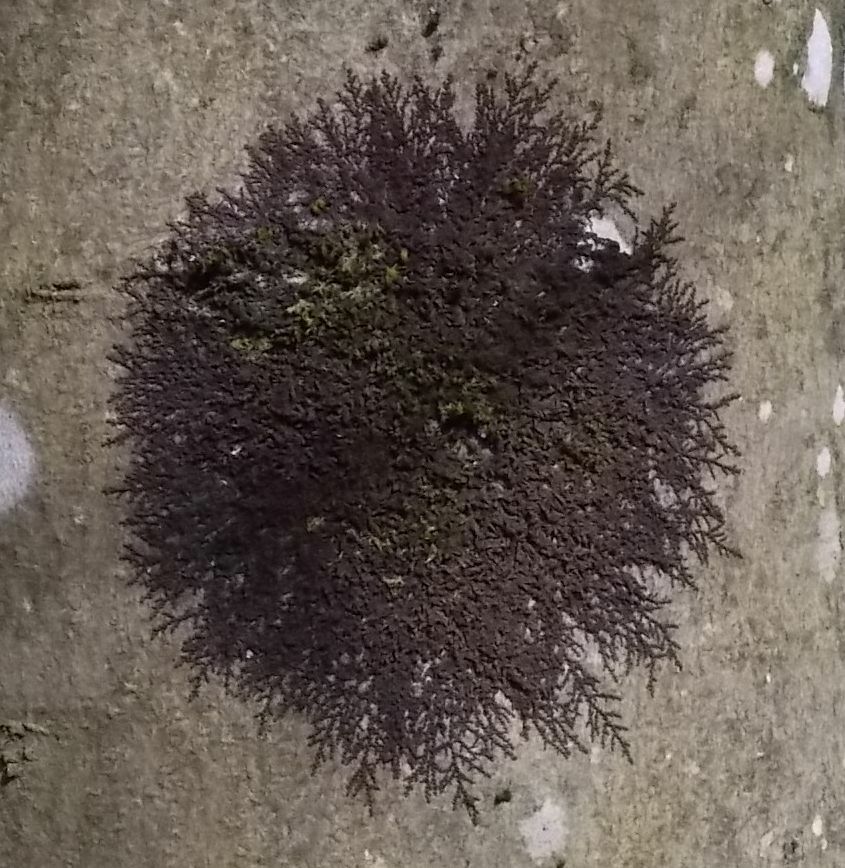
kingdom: Plantae
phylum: Marchantiophyta
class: Jungermanniopsida
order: Porellales
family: Frullaniaceae
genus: Frullania
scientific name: Frullania dilatata
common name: Dilated scalewort
